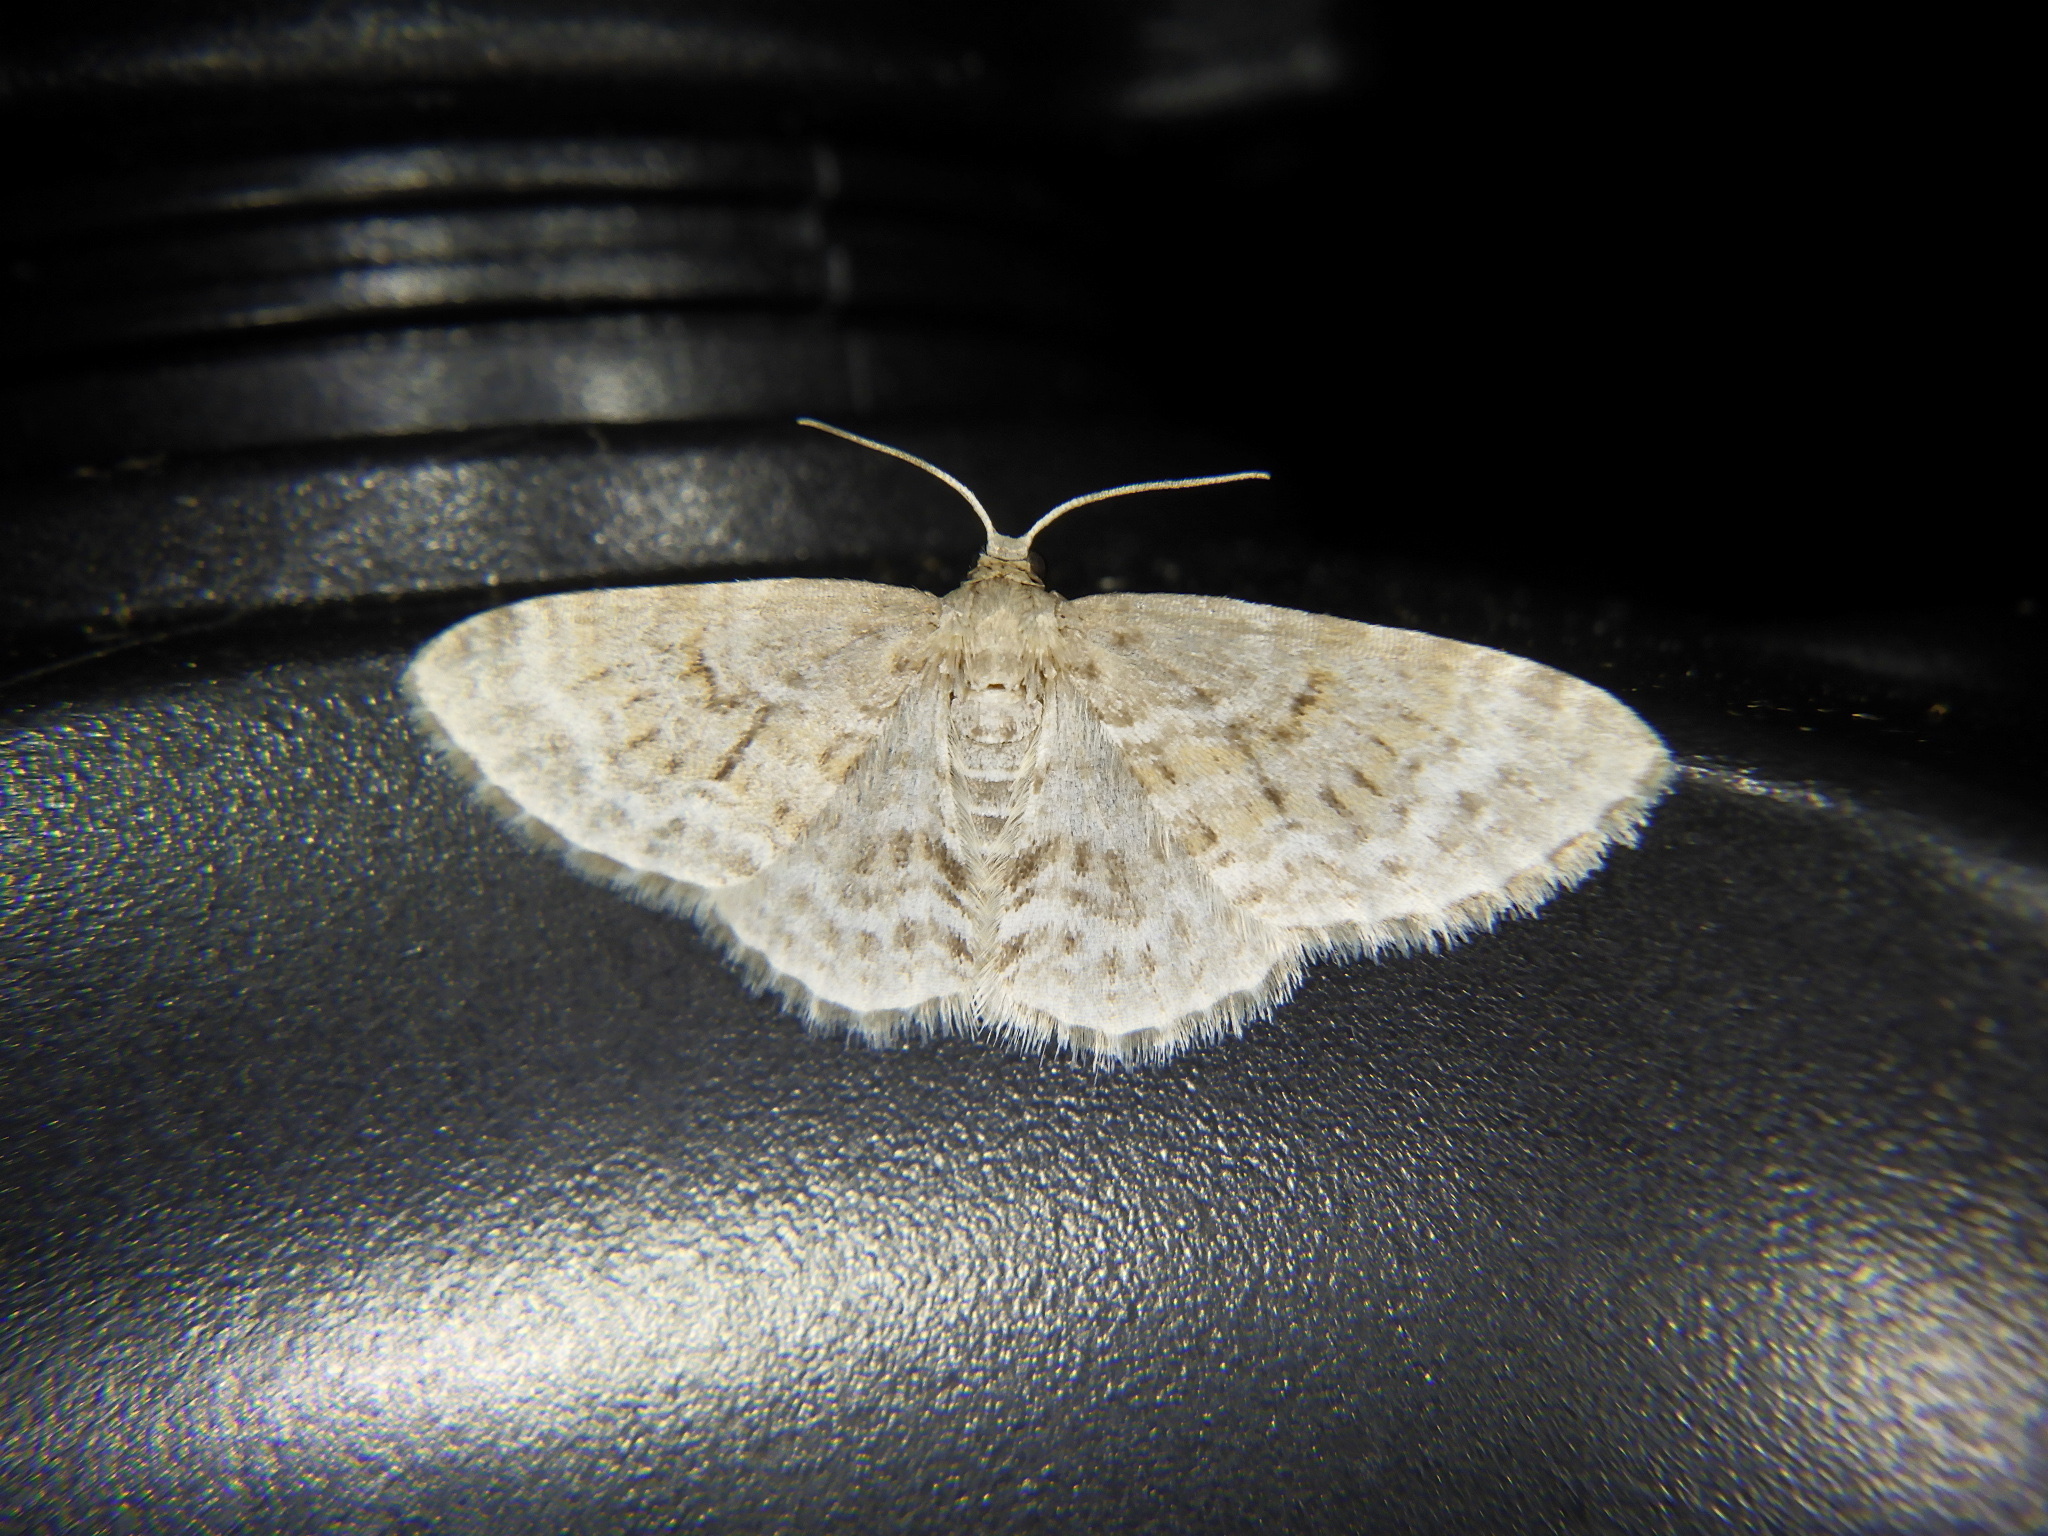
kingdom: Animalia
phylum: Arthropoda
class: Insecta
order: Lepidoptera
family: Geometridae
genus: Hydrelia
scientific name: Hydrelia nisaria
